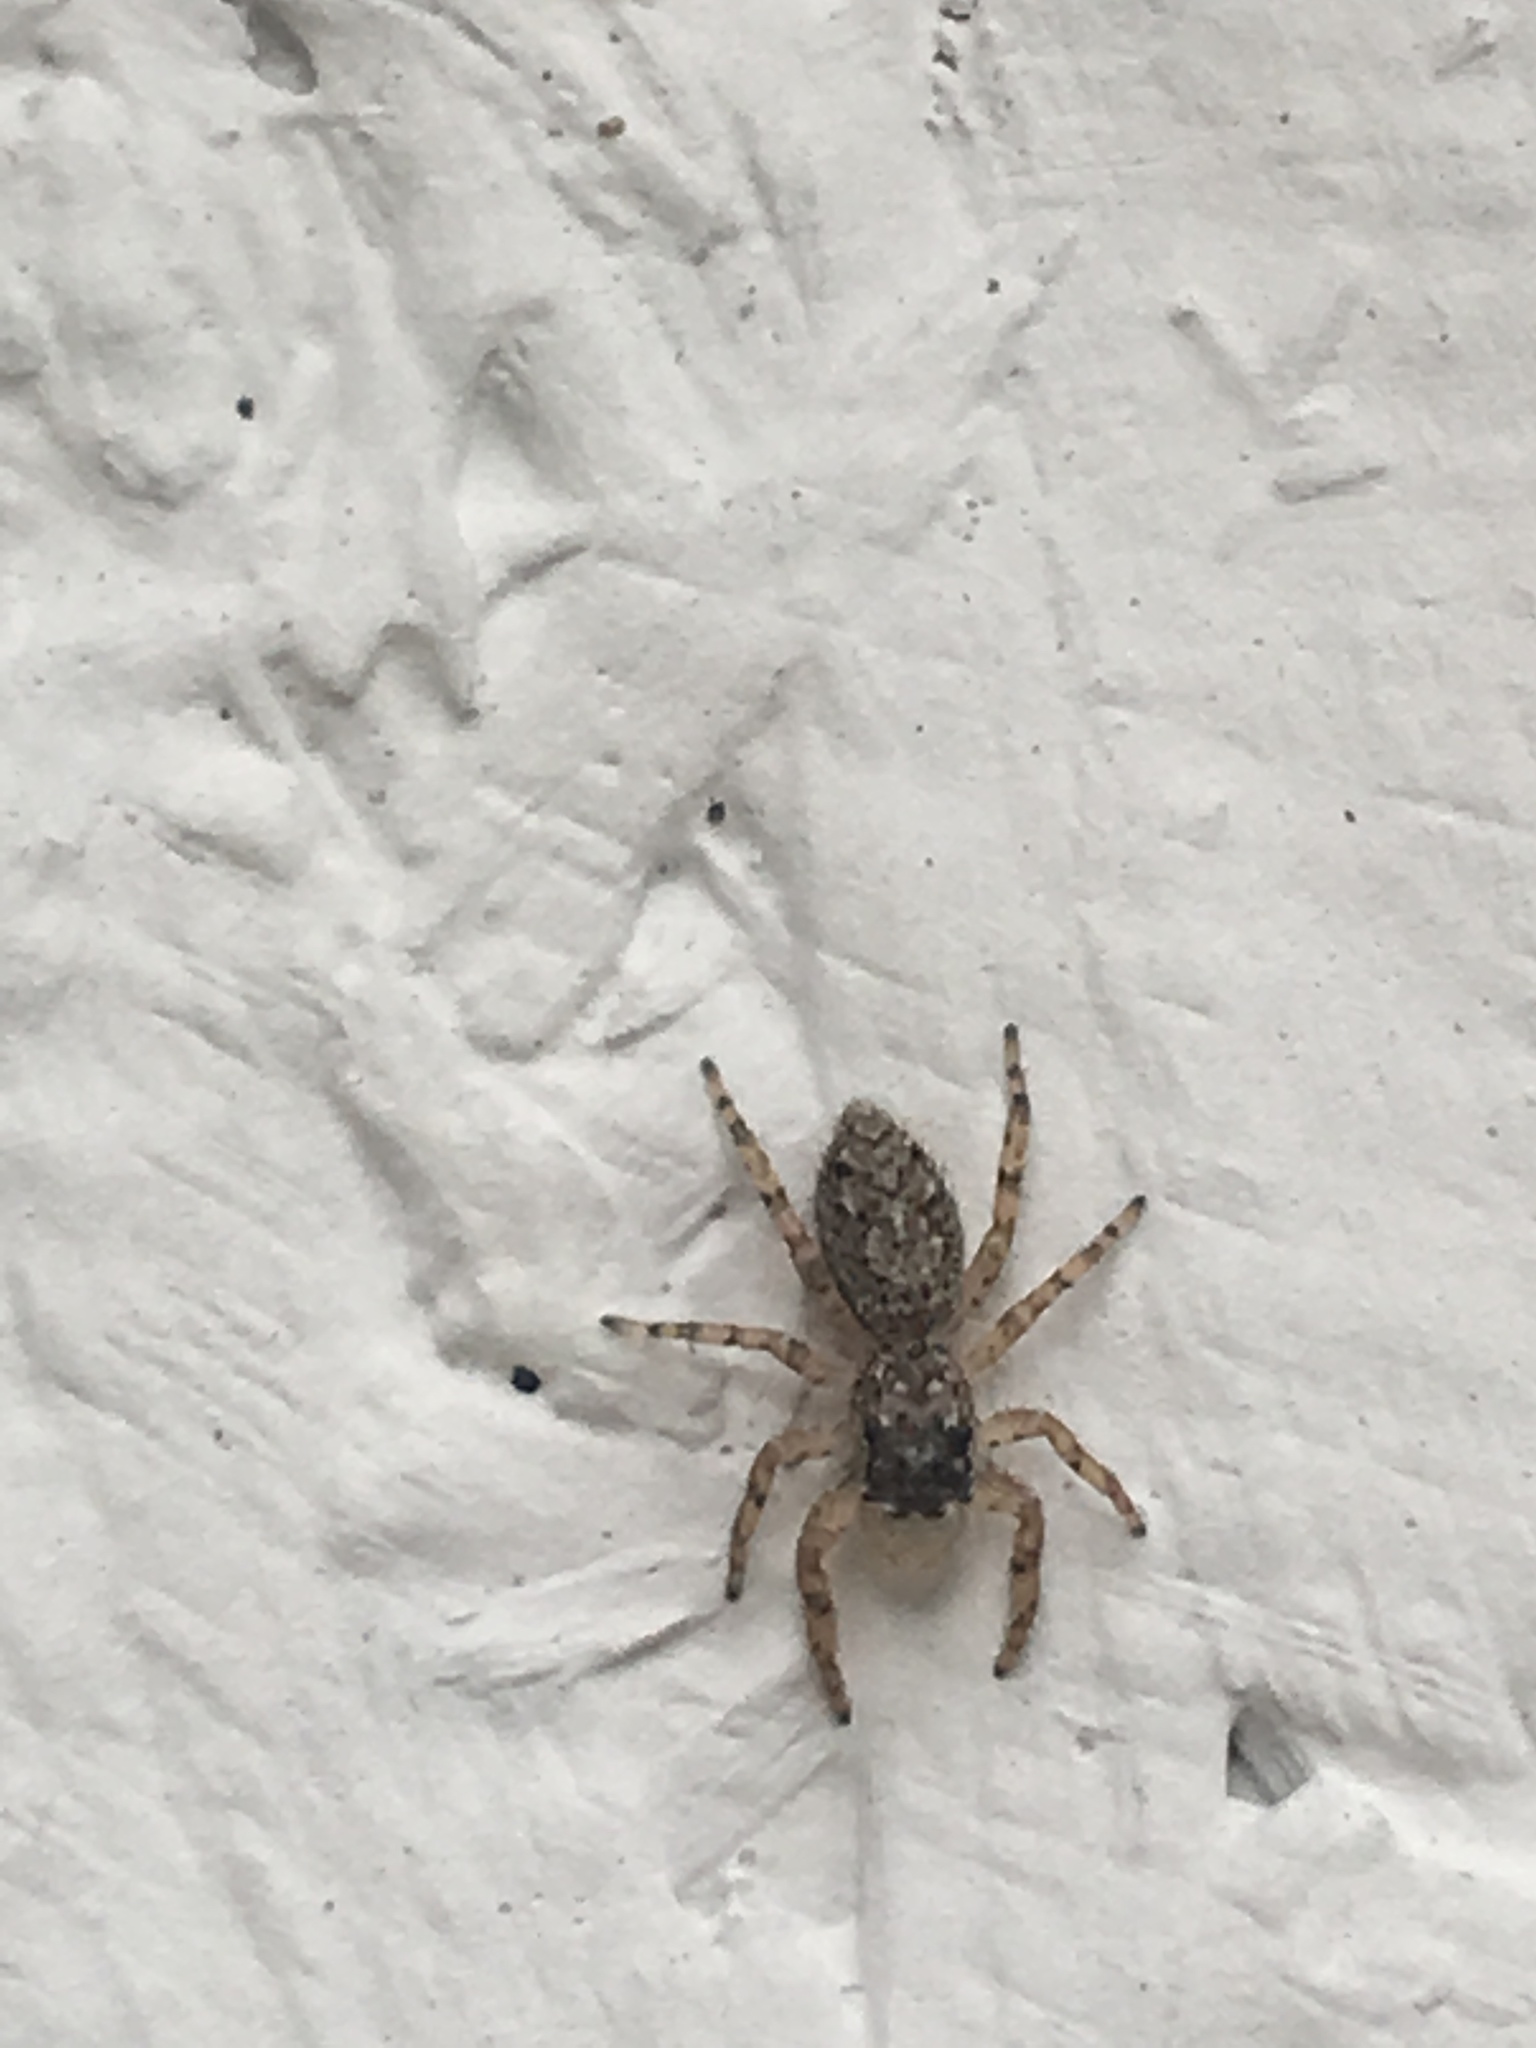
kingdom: Animalia
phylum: Arthropoda
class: Arachnida
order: Araneae
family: Salticidae
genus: Platycryptus
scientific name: Platycryptus undatus
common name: Tan jumping spider
